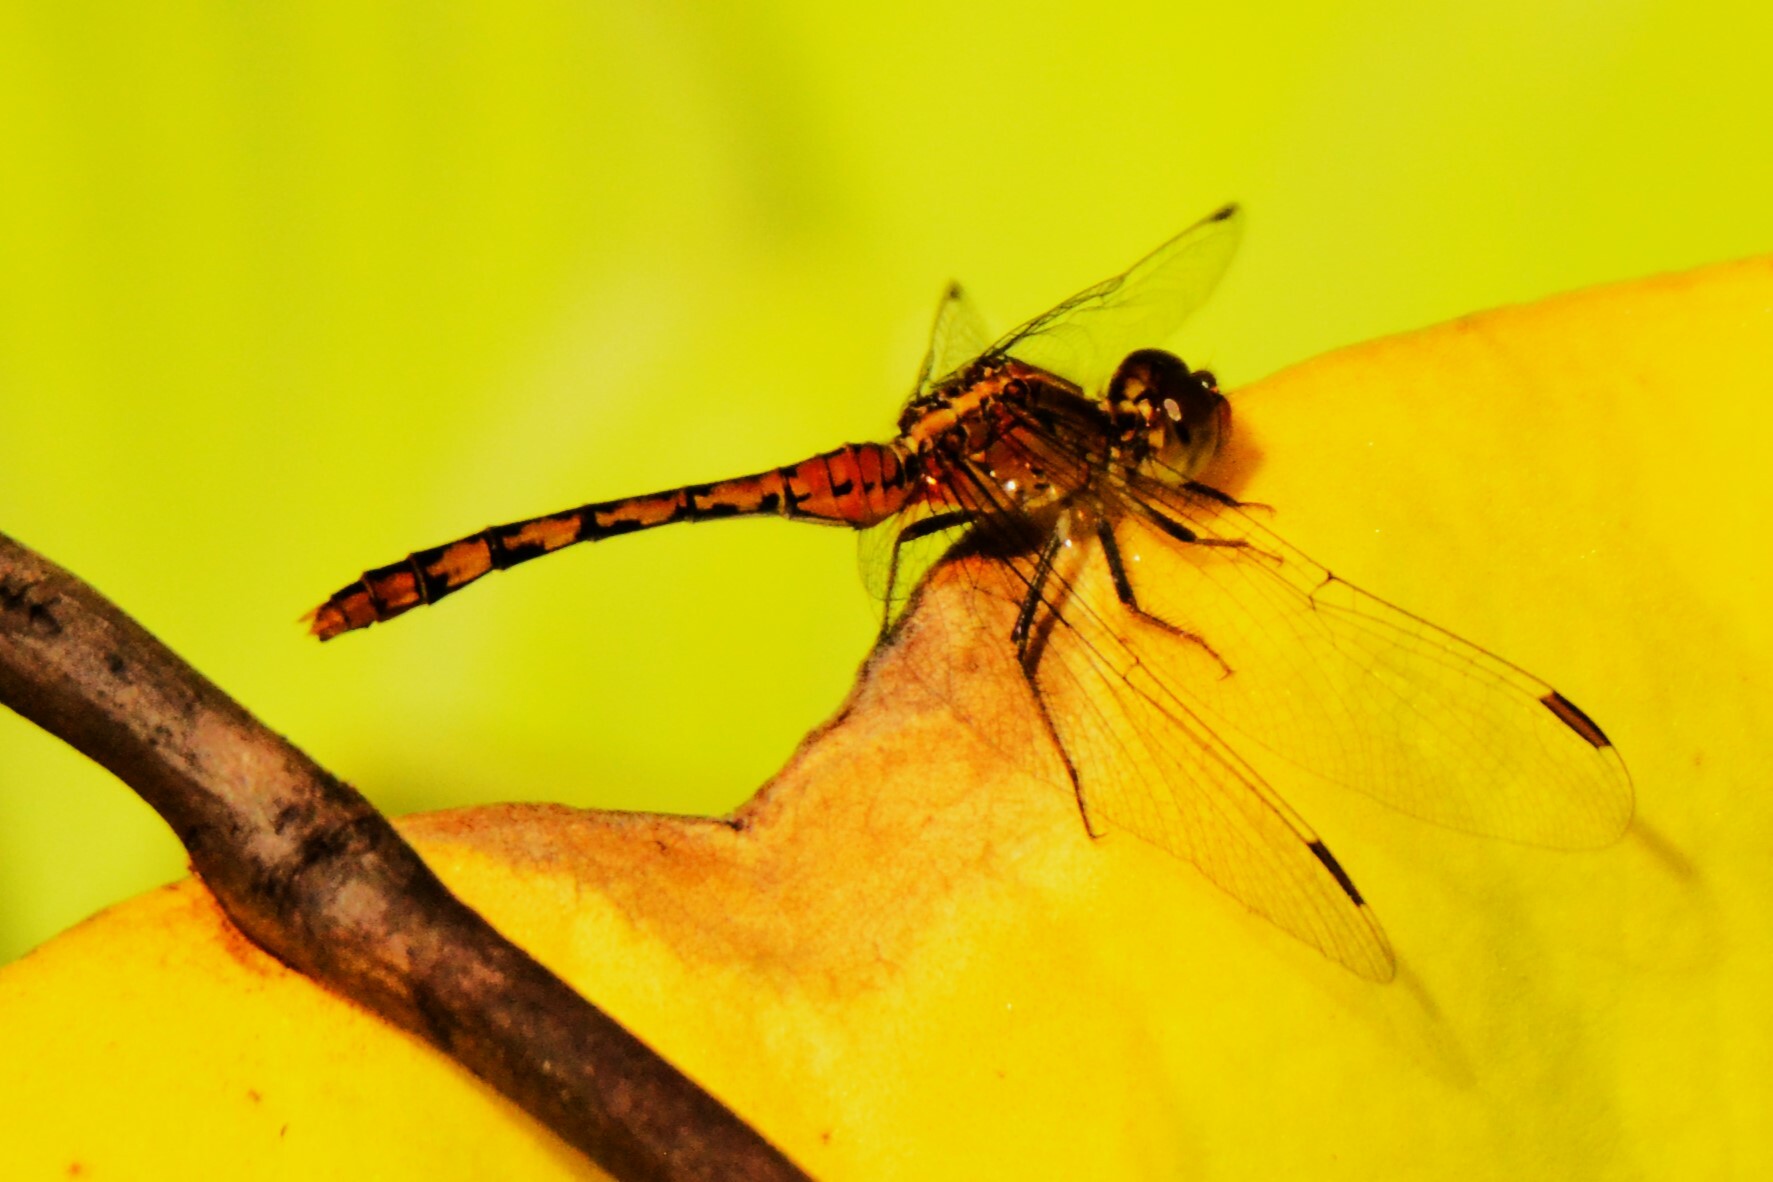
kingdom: Animalia
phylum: Arthropoda
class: Insecta
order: Odonata
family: Libellulidae
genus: Diplacodes
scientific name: Diplacodes bipunctata
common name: Red percher dragonfly
